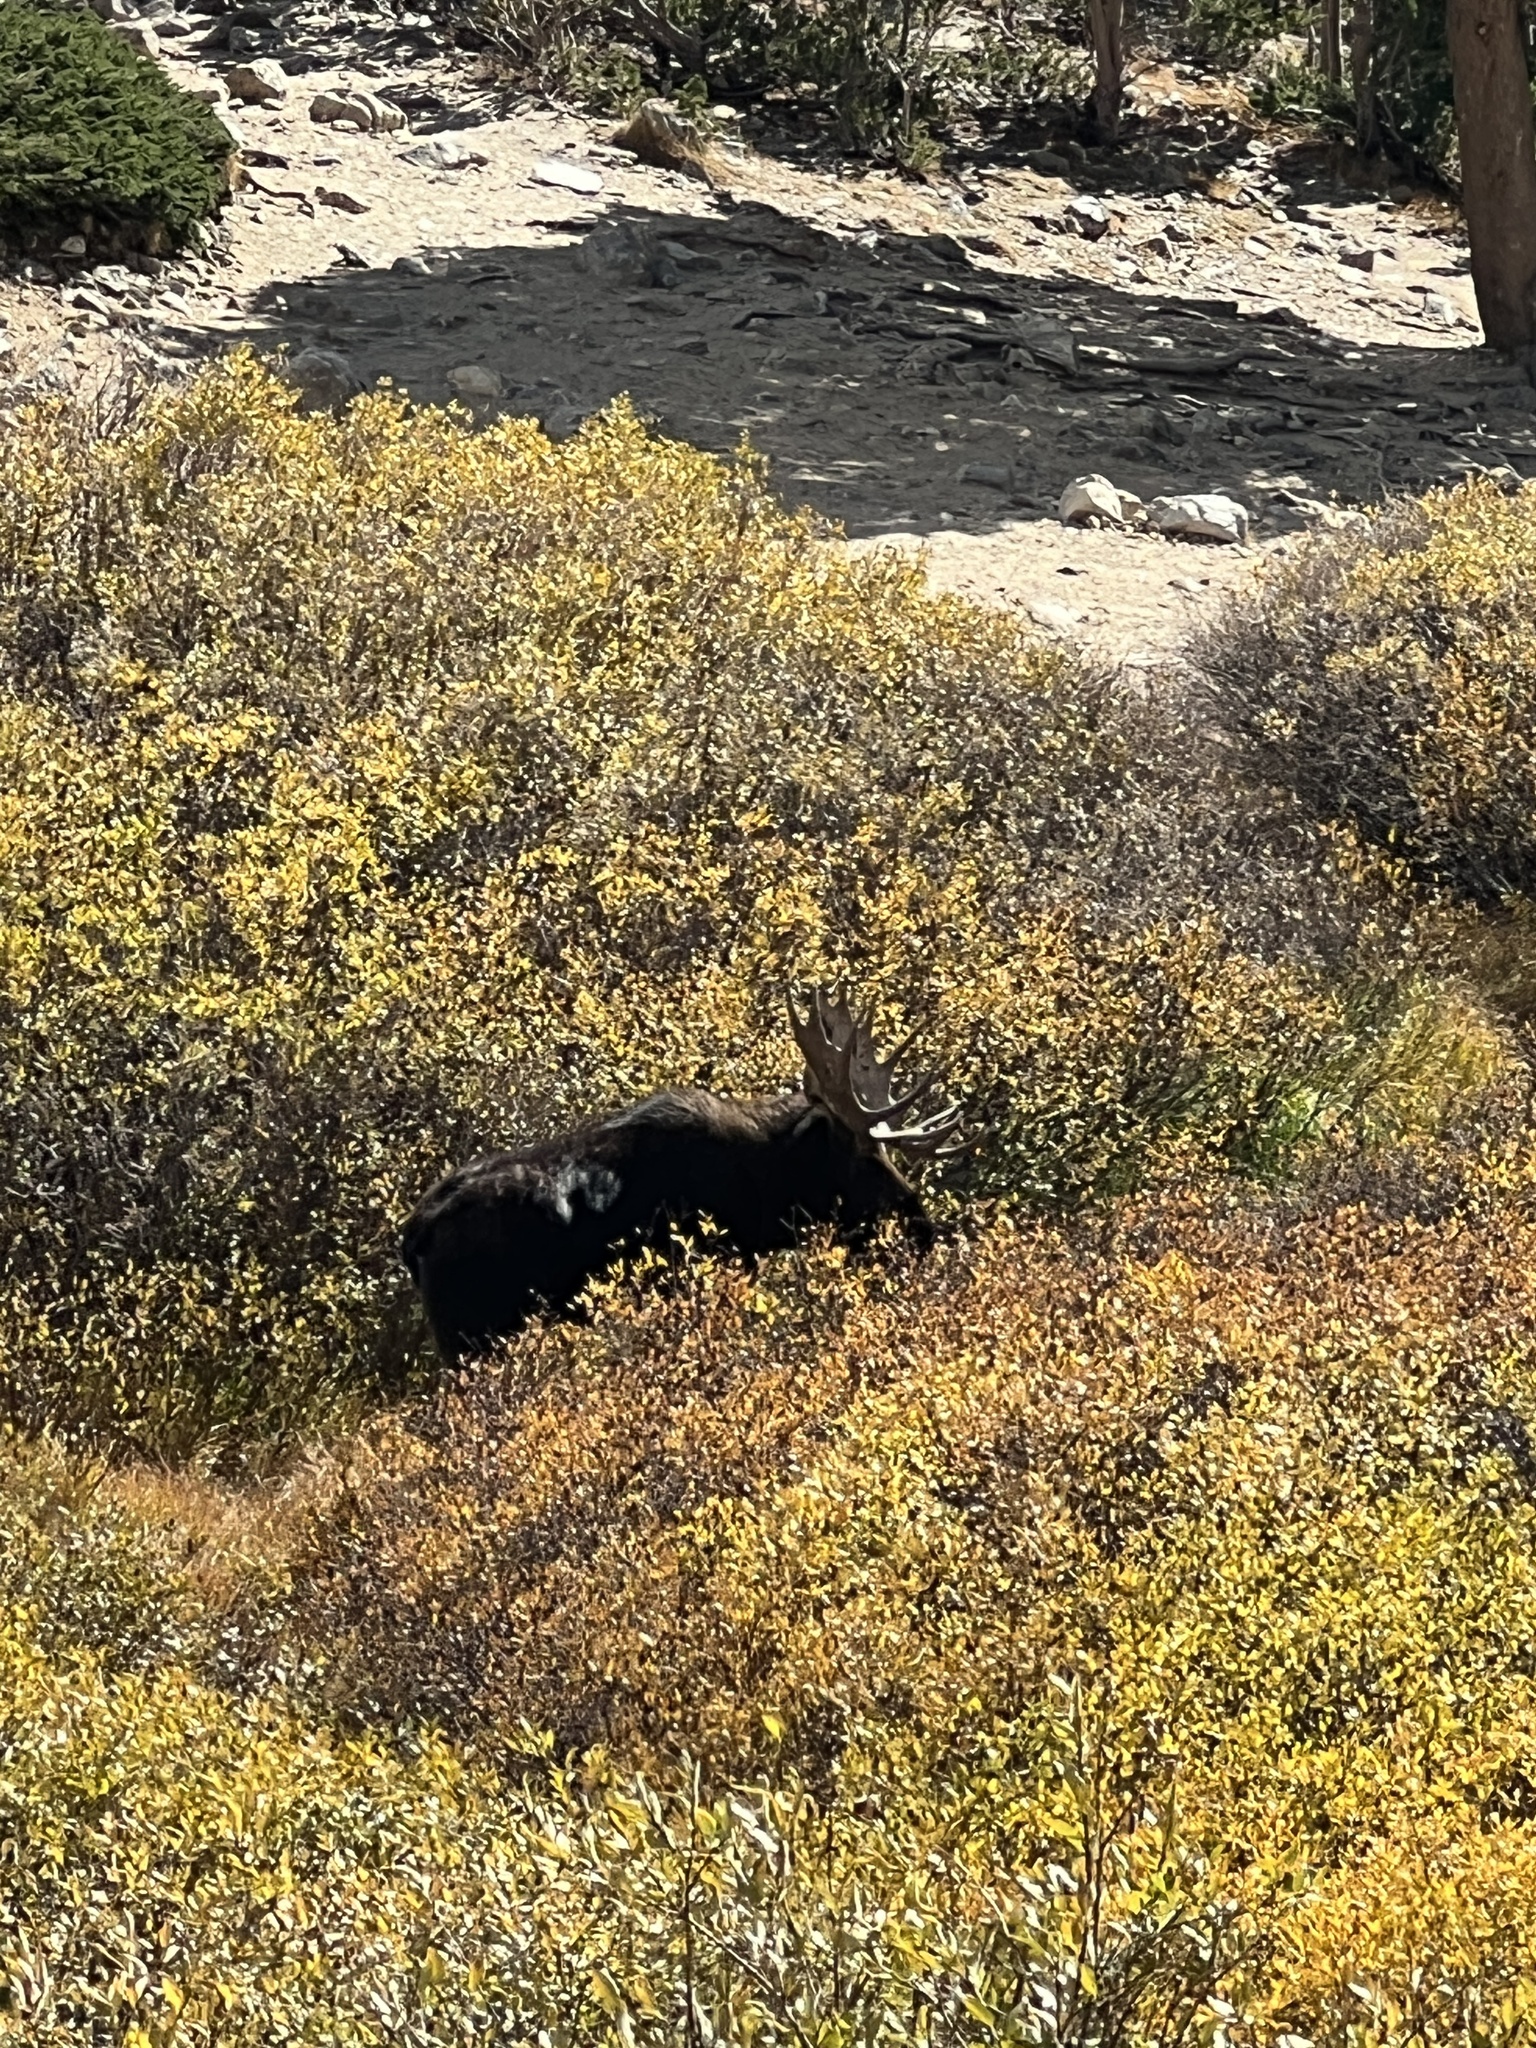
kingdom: Animalia
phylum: Chordata
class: Mammalia
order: Artiodactyla
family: Cervidae
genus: Alces
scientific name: Alces alces
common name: Moose
